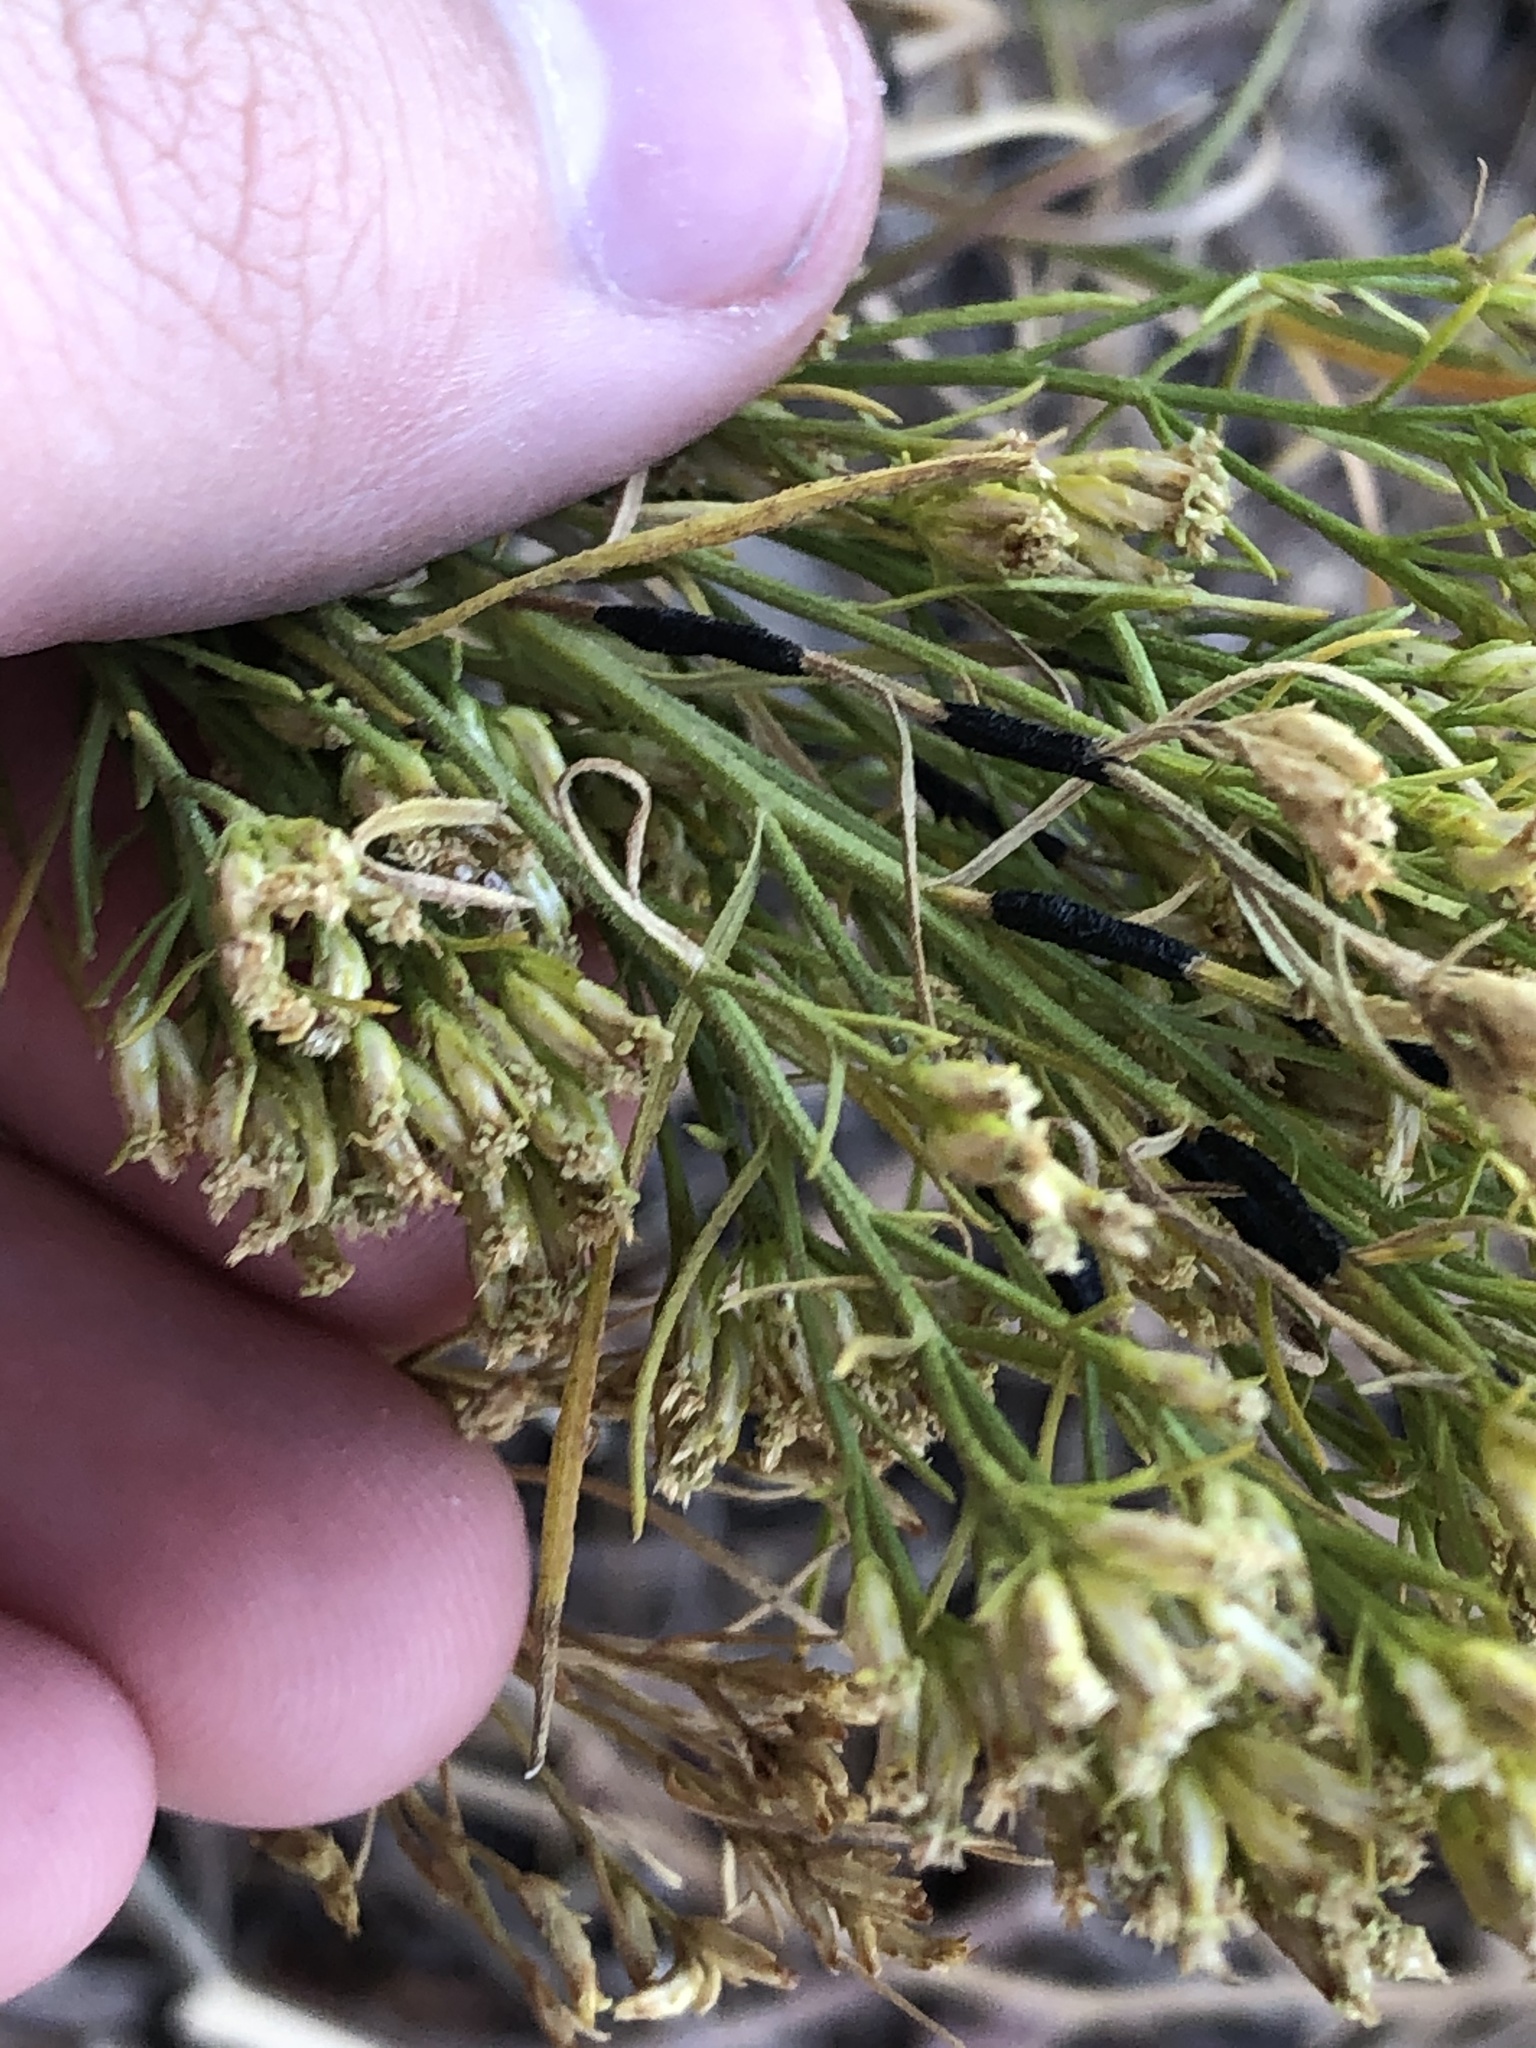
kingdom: Animalia
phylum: Arthropoda
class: Insecta
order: Diptera
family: Cecidomyiidae
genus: Asteromyia
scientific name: Asteromyia gutierreziae
